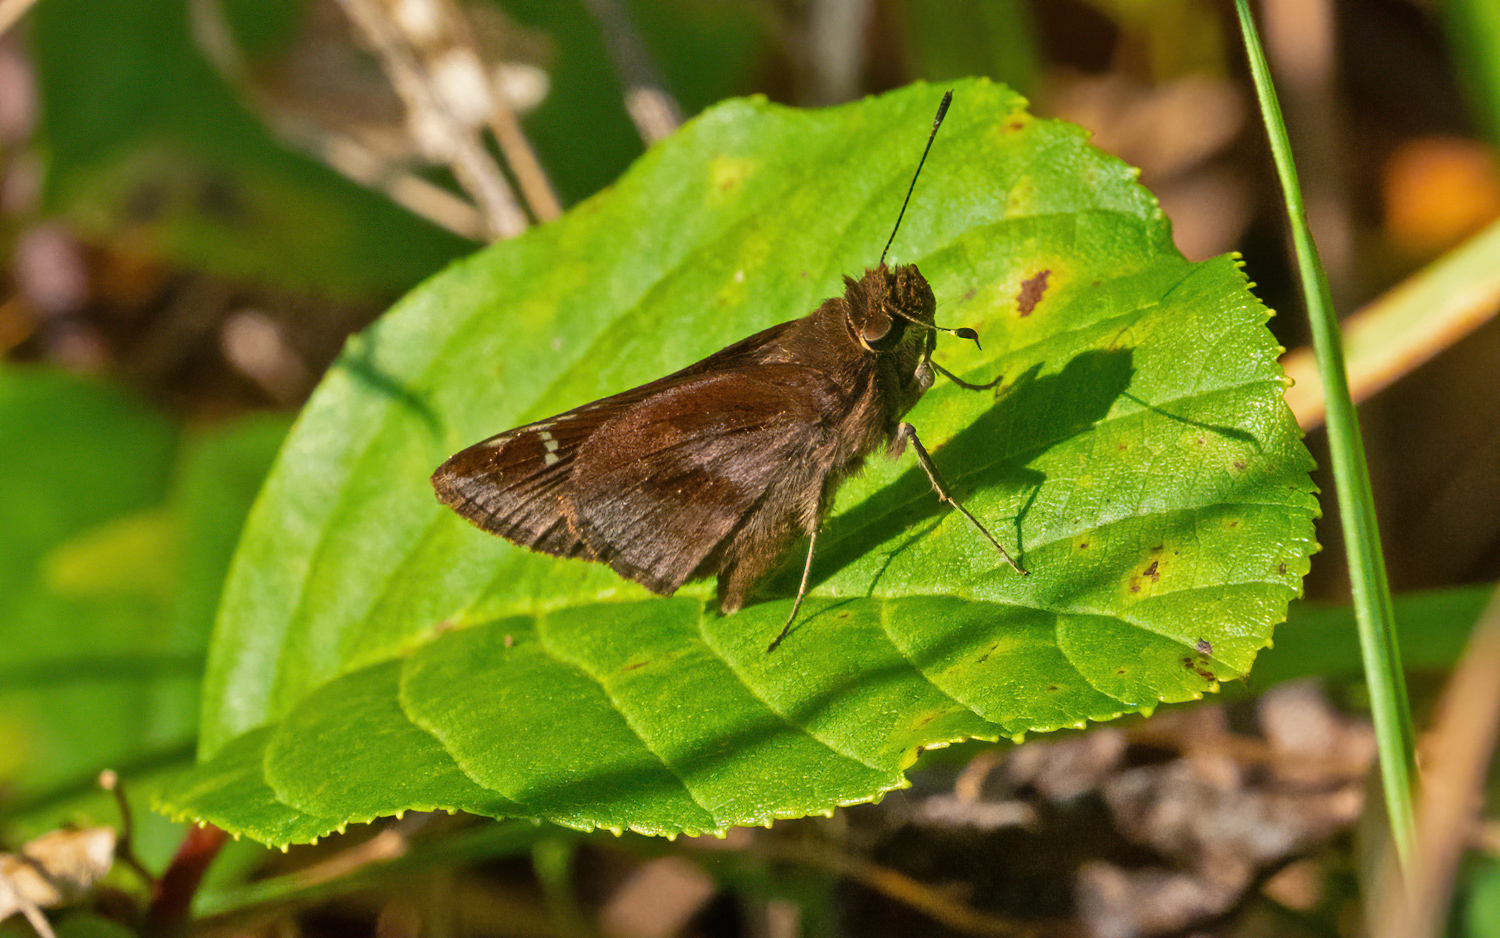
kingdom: Animalia
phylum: Arthropoda
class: Insecta
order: Lepidoptera
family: Hesperiidae
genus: Lerema
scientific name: Lerema accius
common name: Clouded skipper
